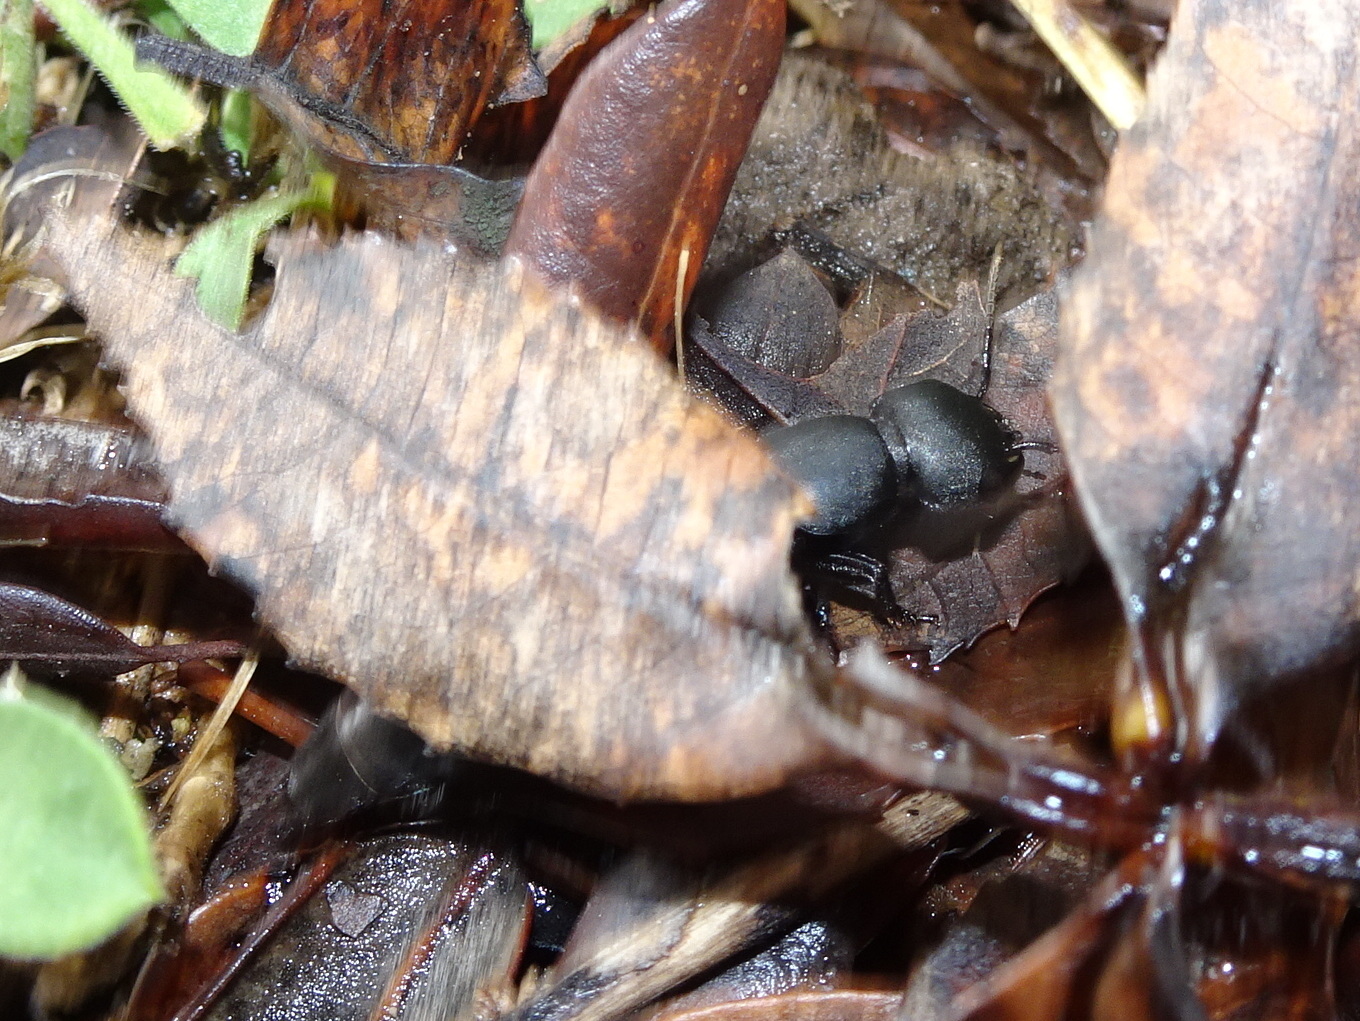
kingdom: Animalia
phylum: Arthropoda
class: Insecta
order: Coleoptera
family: Staphylinidae
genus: Ocypus
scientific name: Ocypus olens
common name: Devil's coach-horse
